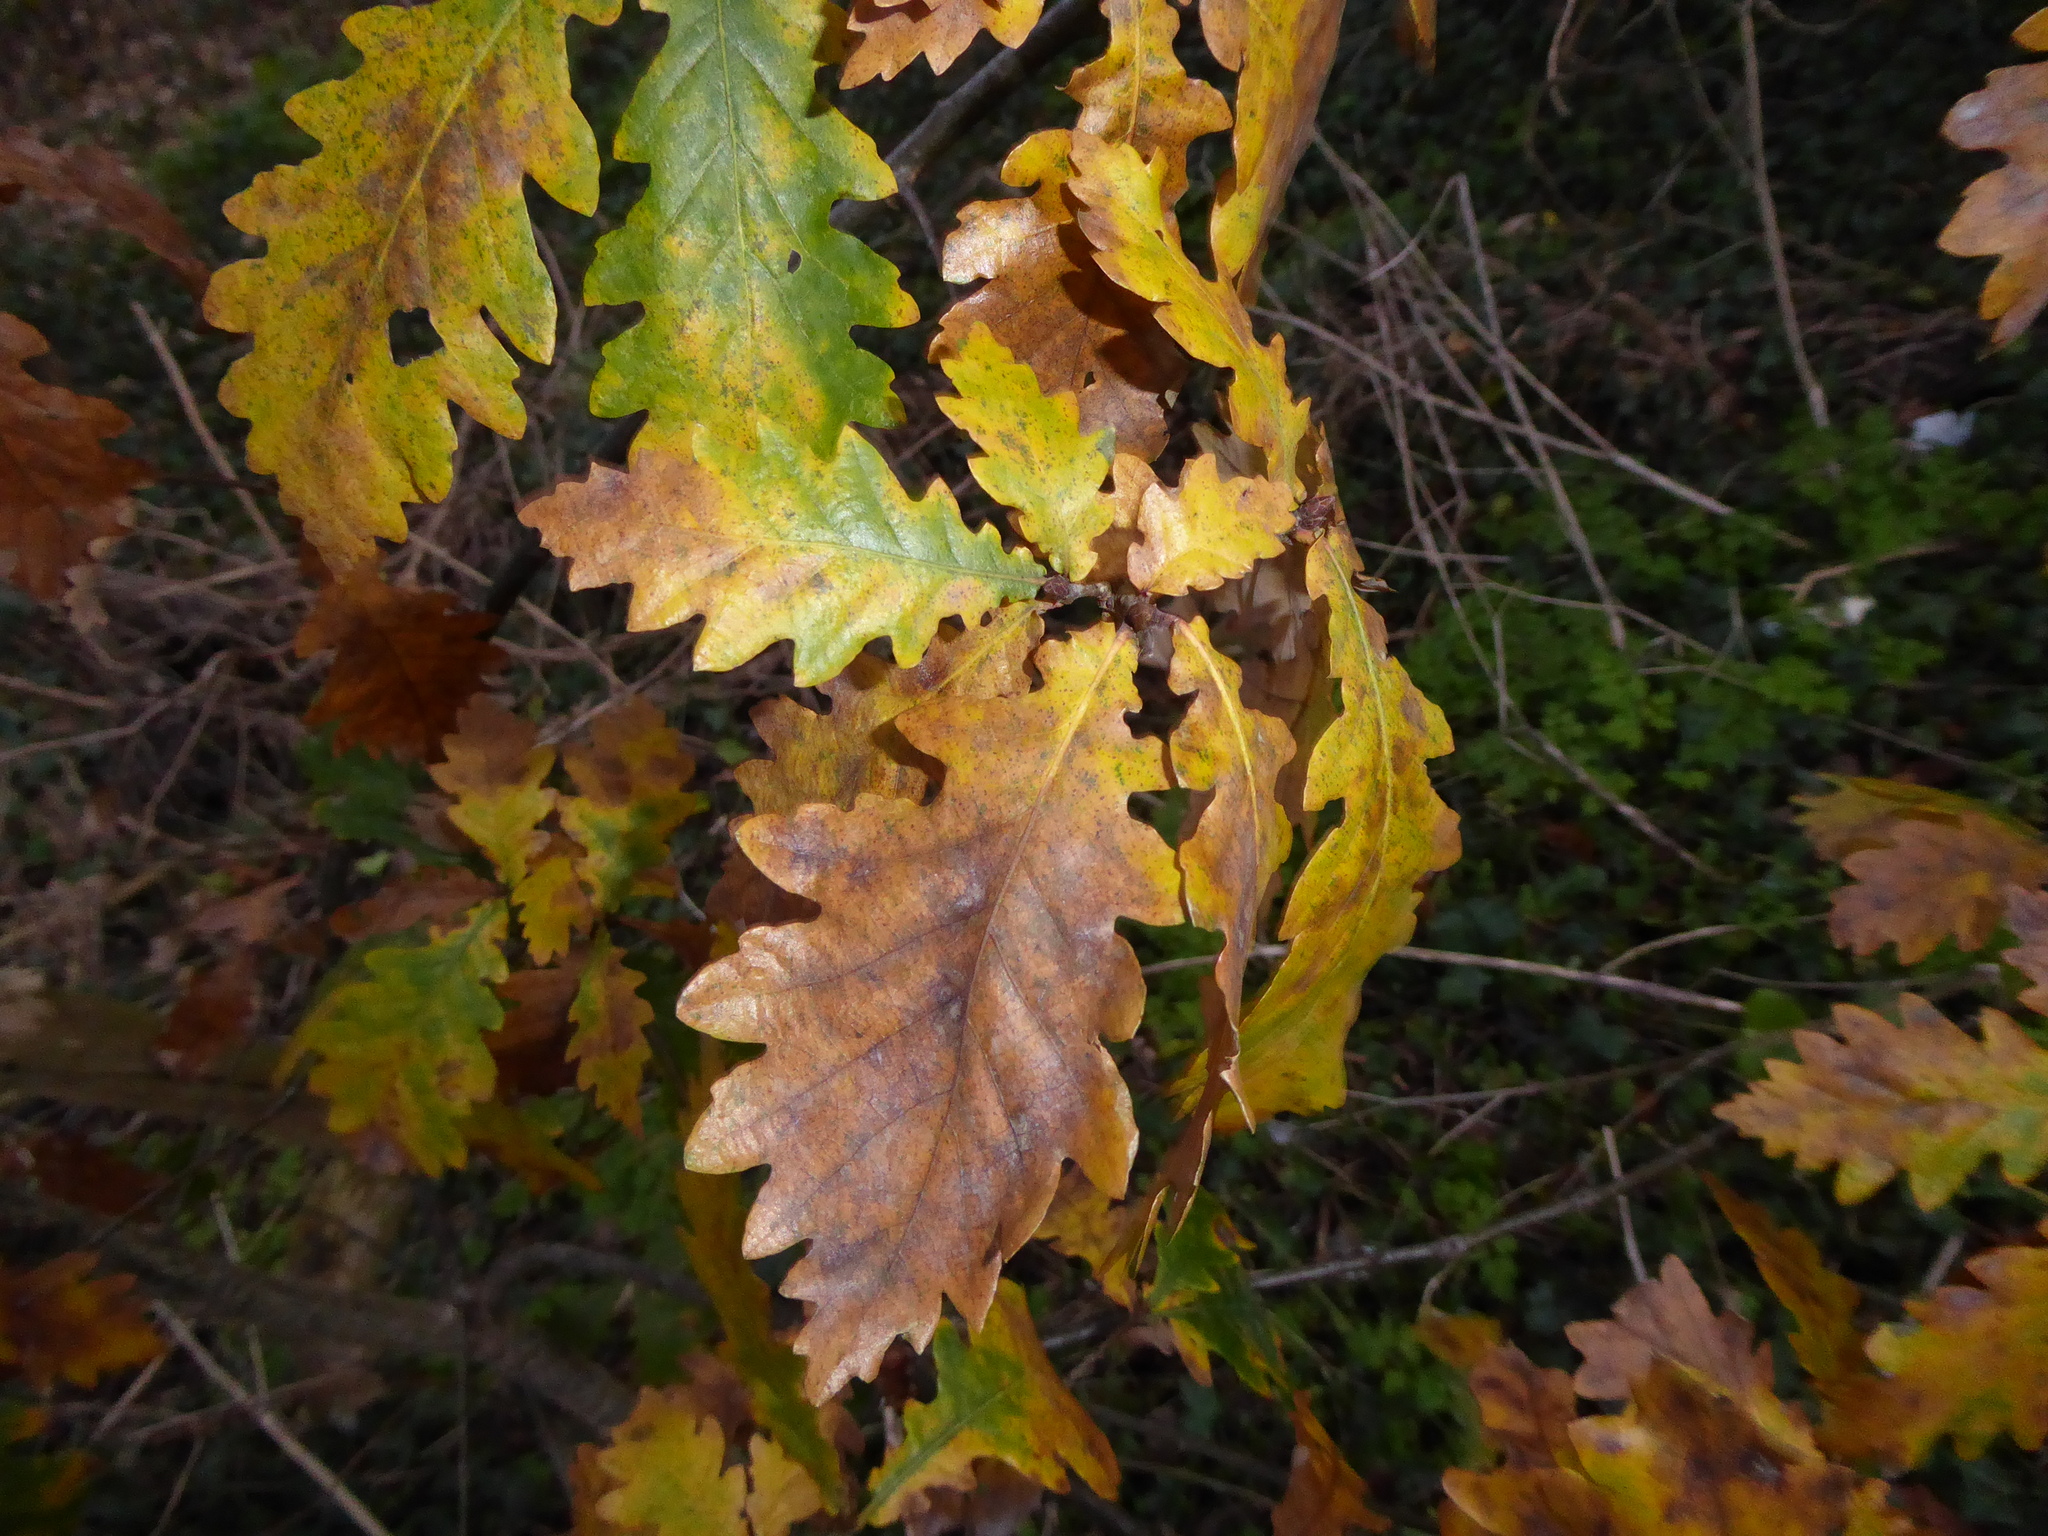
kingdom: Plantae
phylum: Tracheophyta
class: Magnoliopsida
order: Fagales
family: Fagaceae
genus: Quercus
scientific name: Quercus robur
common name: Pedunculate oak
